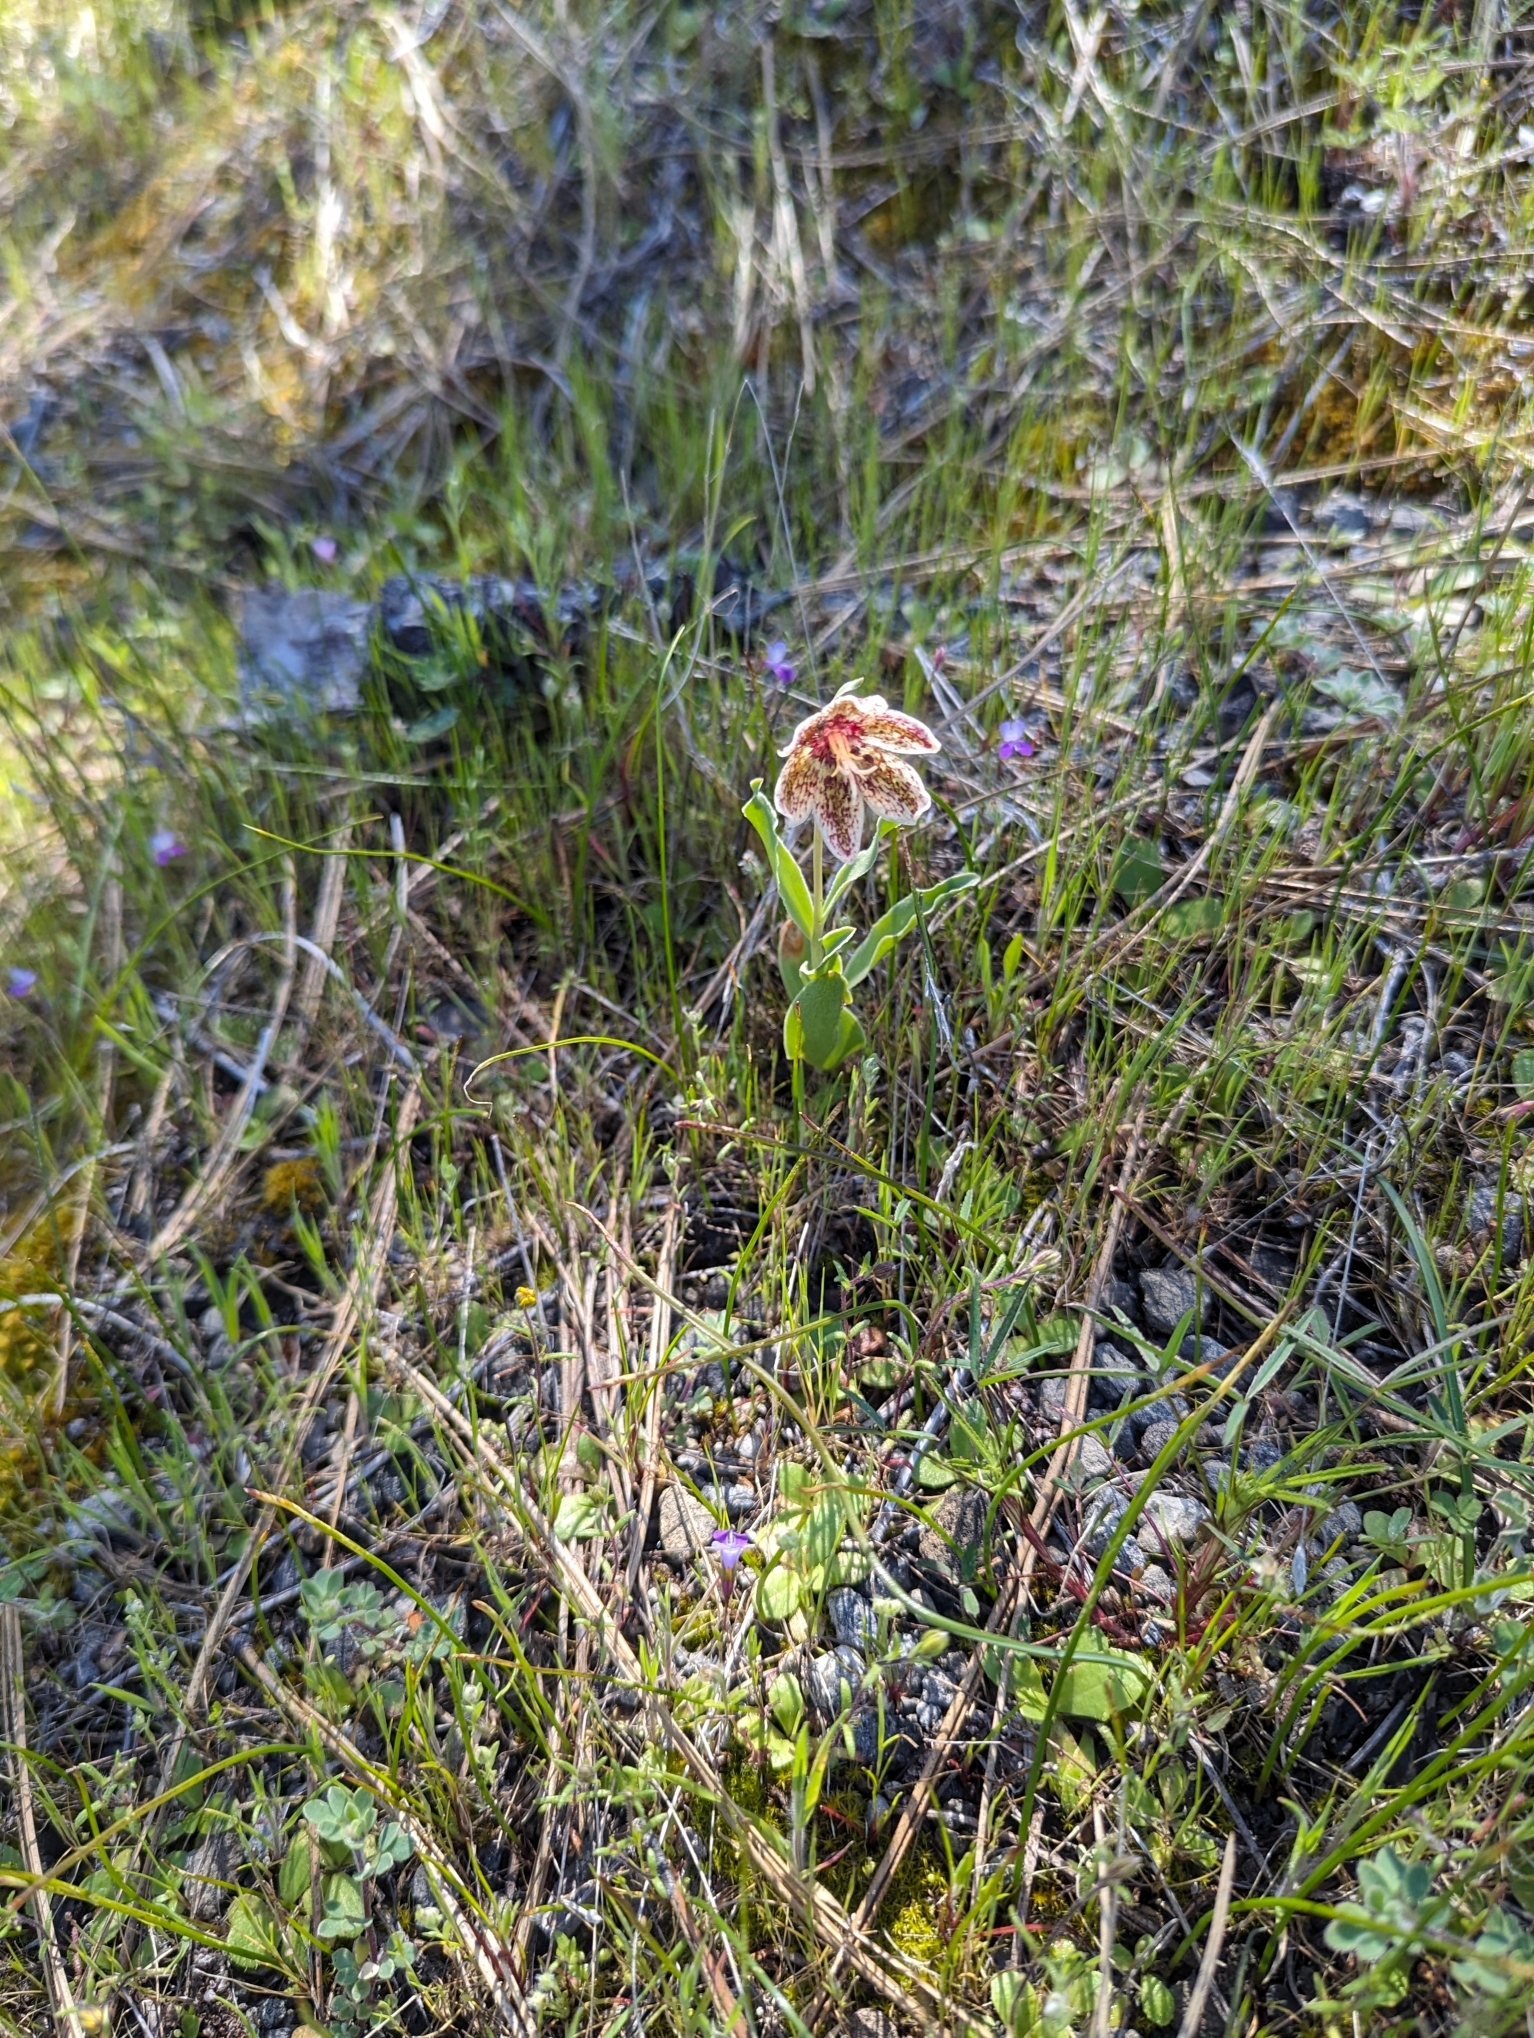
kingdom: Plantae
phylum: Tracheophyta
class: Liliopsida
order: Liliales
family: Liliaceae
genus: Fritillaria
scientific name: Fritillaria purdyi
